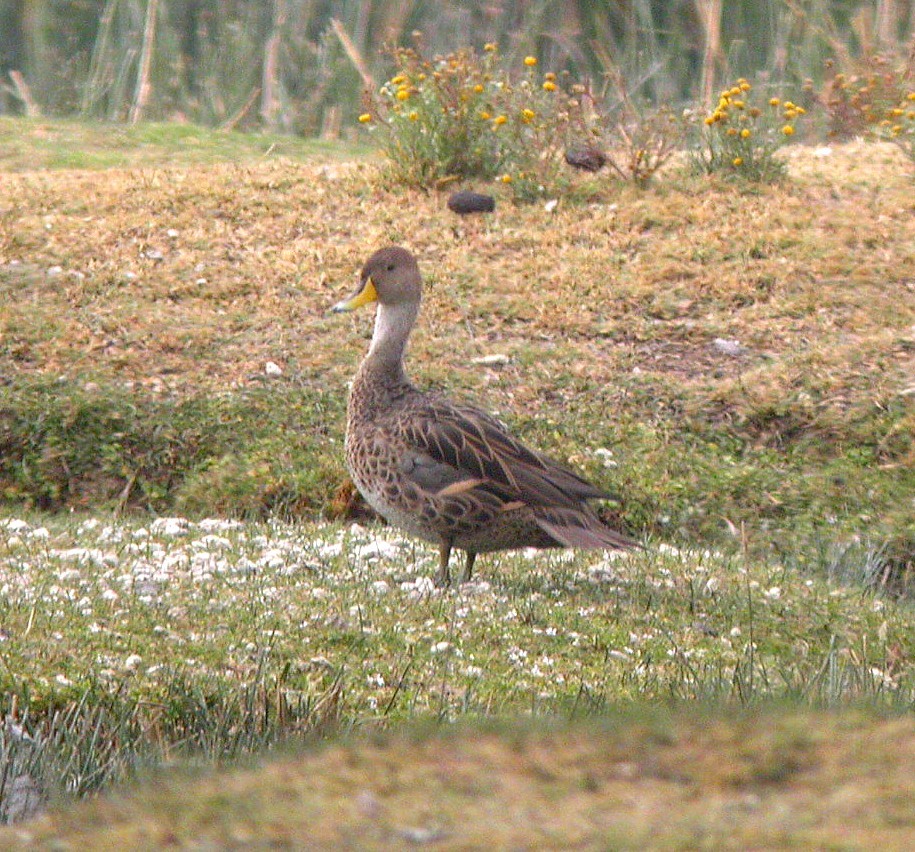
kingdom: Animalia
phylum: Chordata
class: Aves
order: Anseriformes
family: Anatidae
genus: Anas
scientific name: Anas georgica
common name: Yellow-billed pintail
